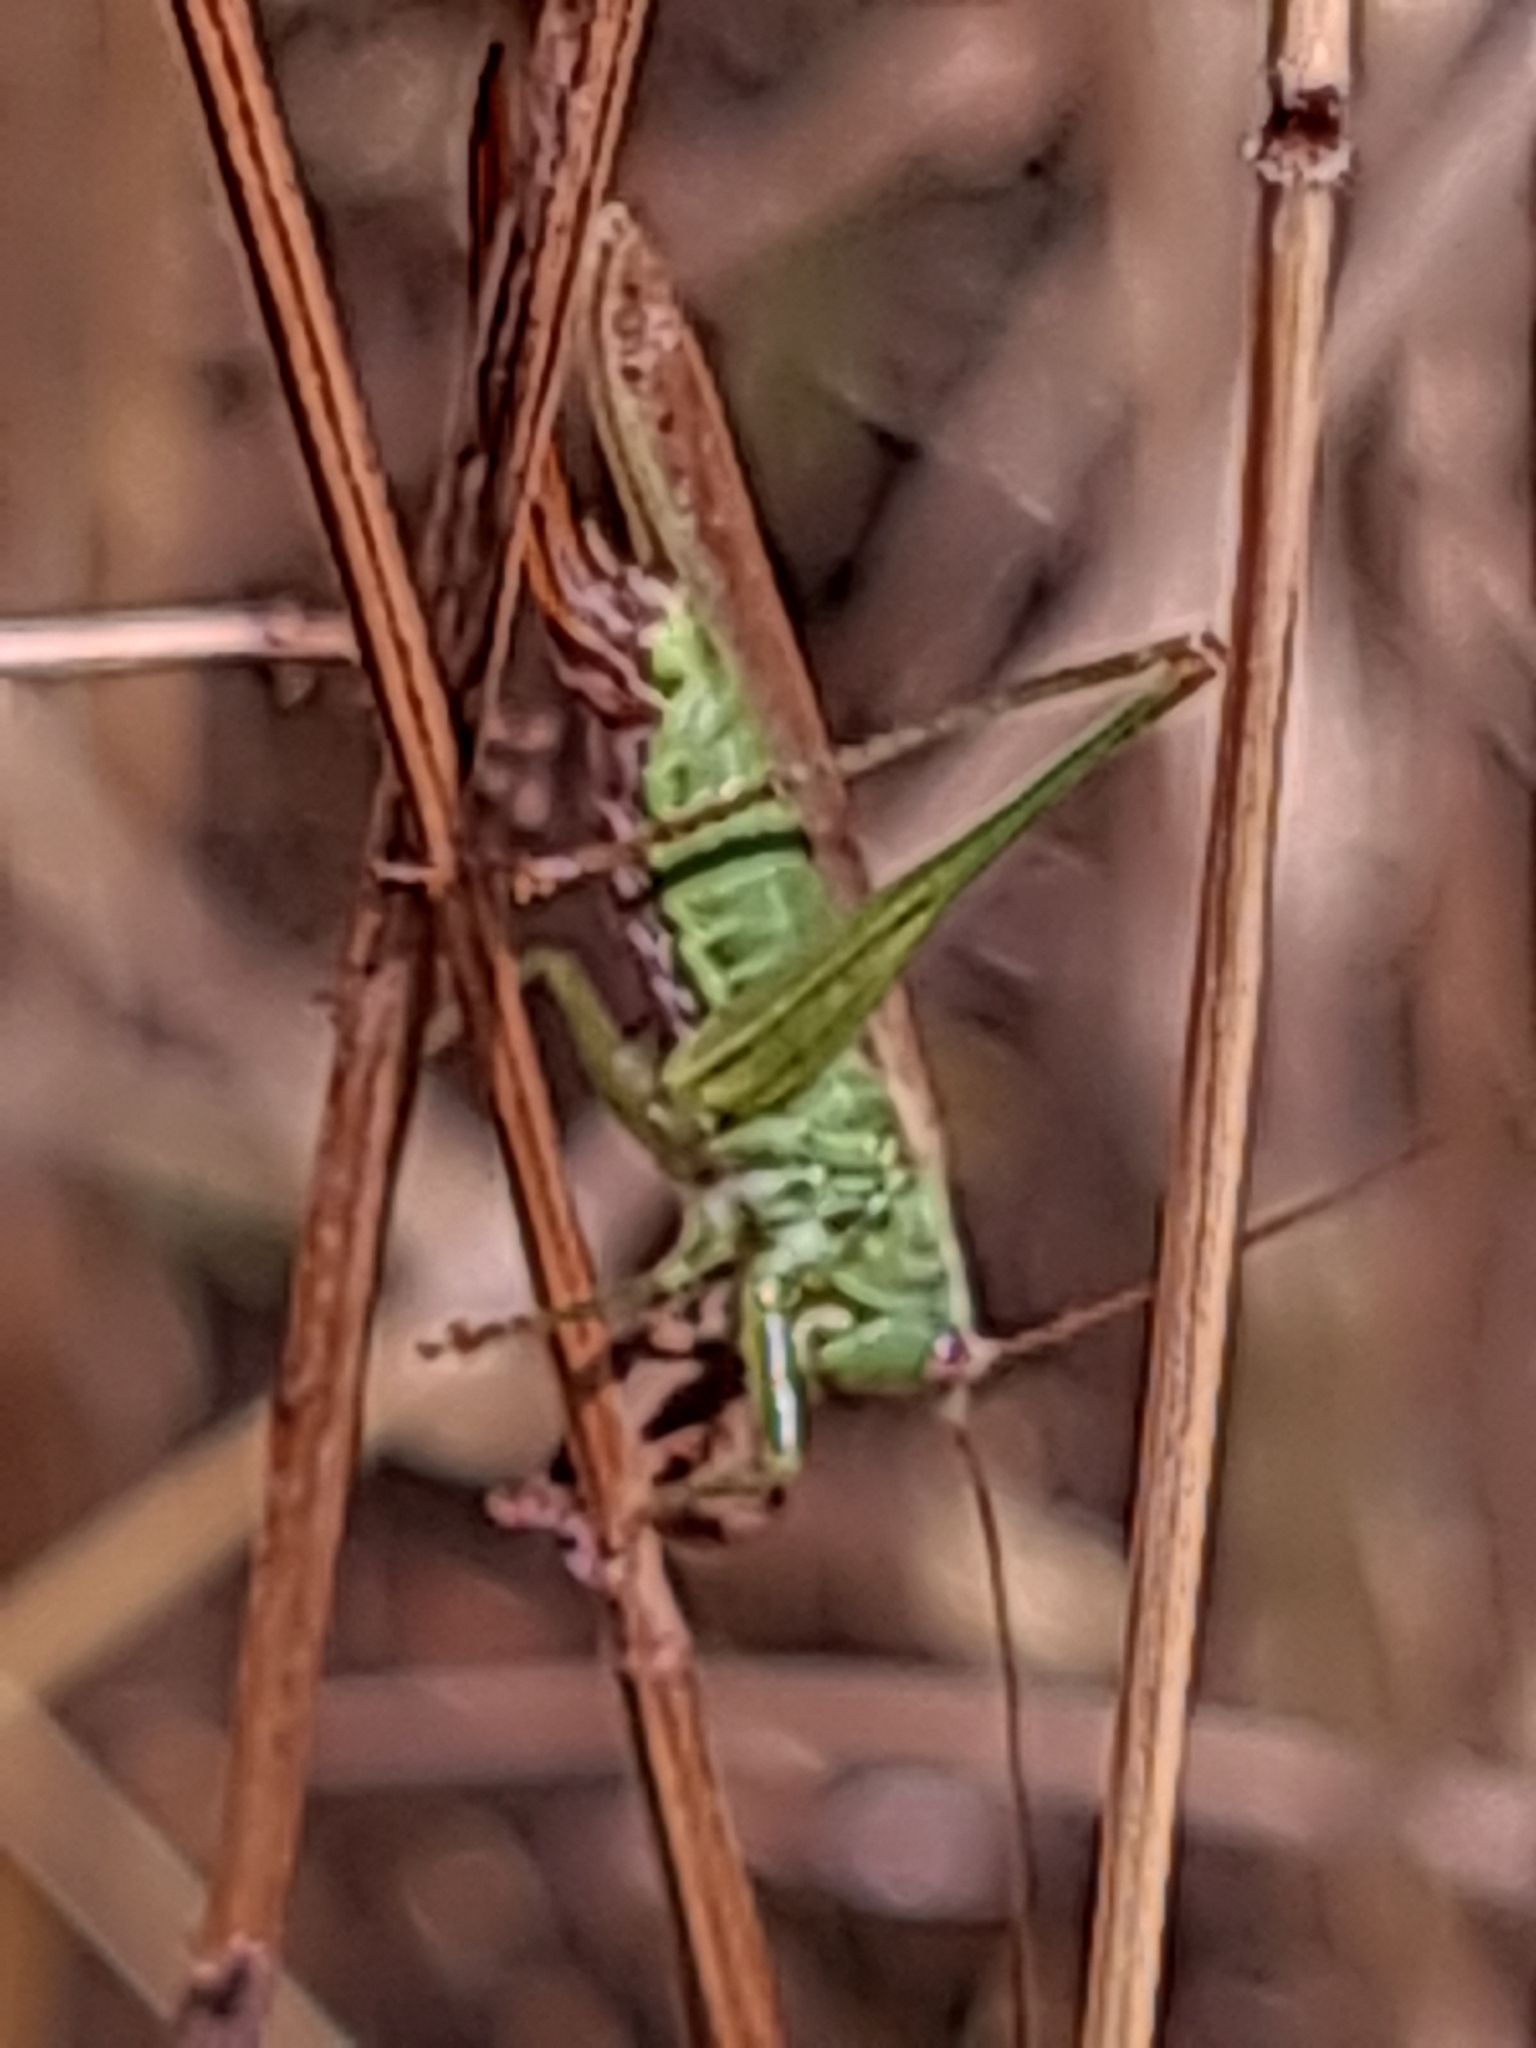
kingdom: Animalia
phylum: Arthropoda
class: Insecta
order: Orthoptera
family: Tettigoniidae
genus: Conocephalus
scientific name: Conocephalus fuscus
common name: Long-winged conehead
